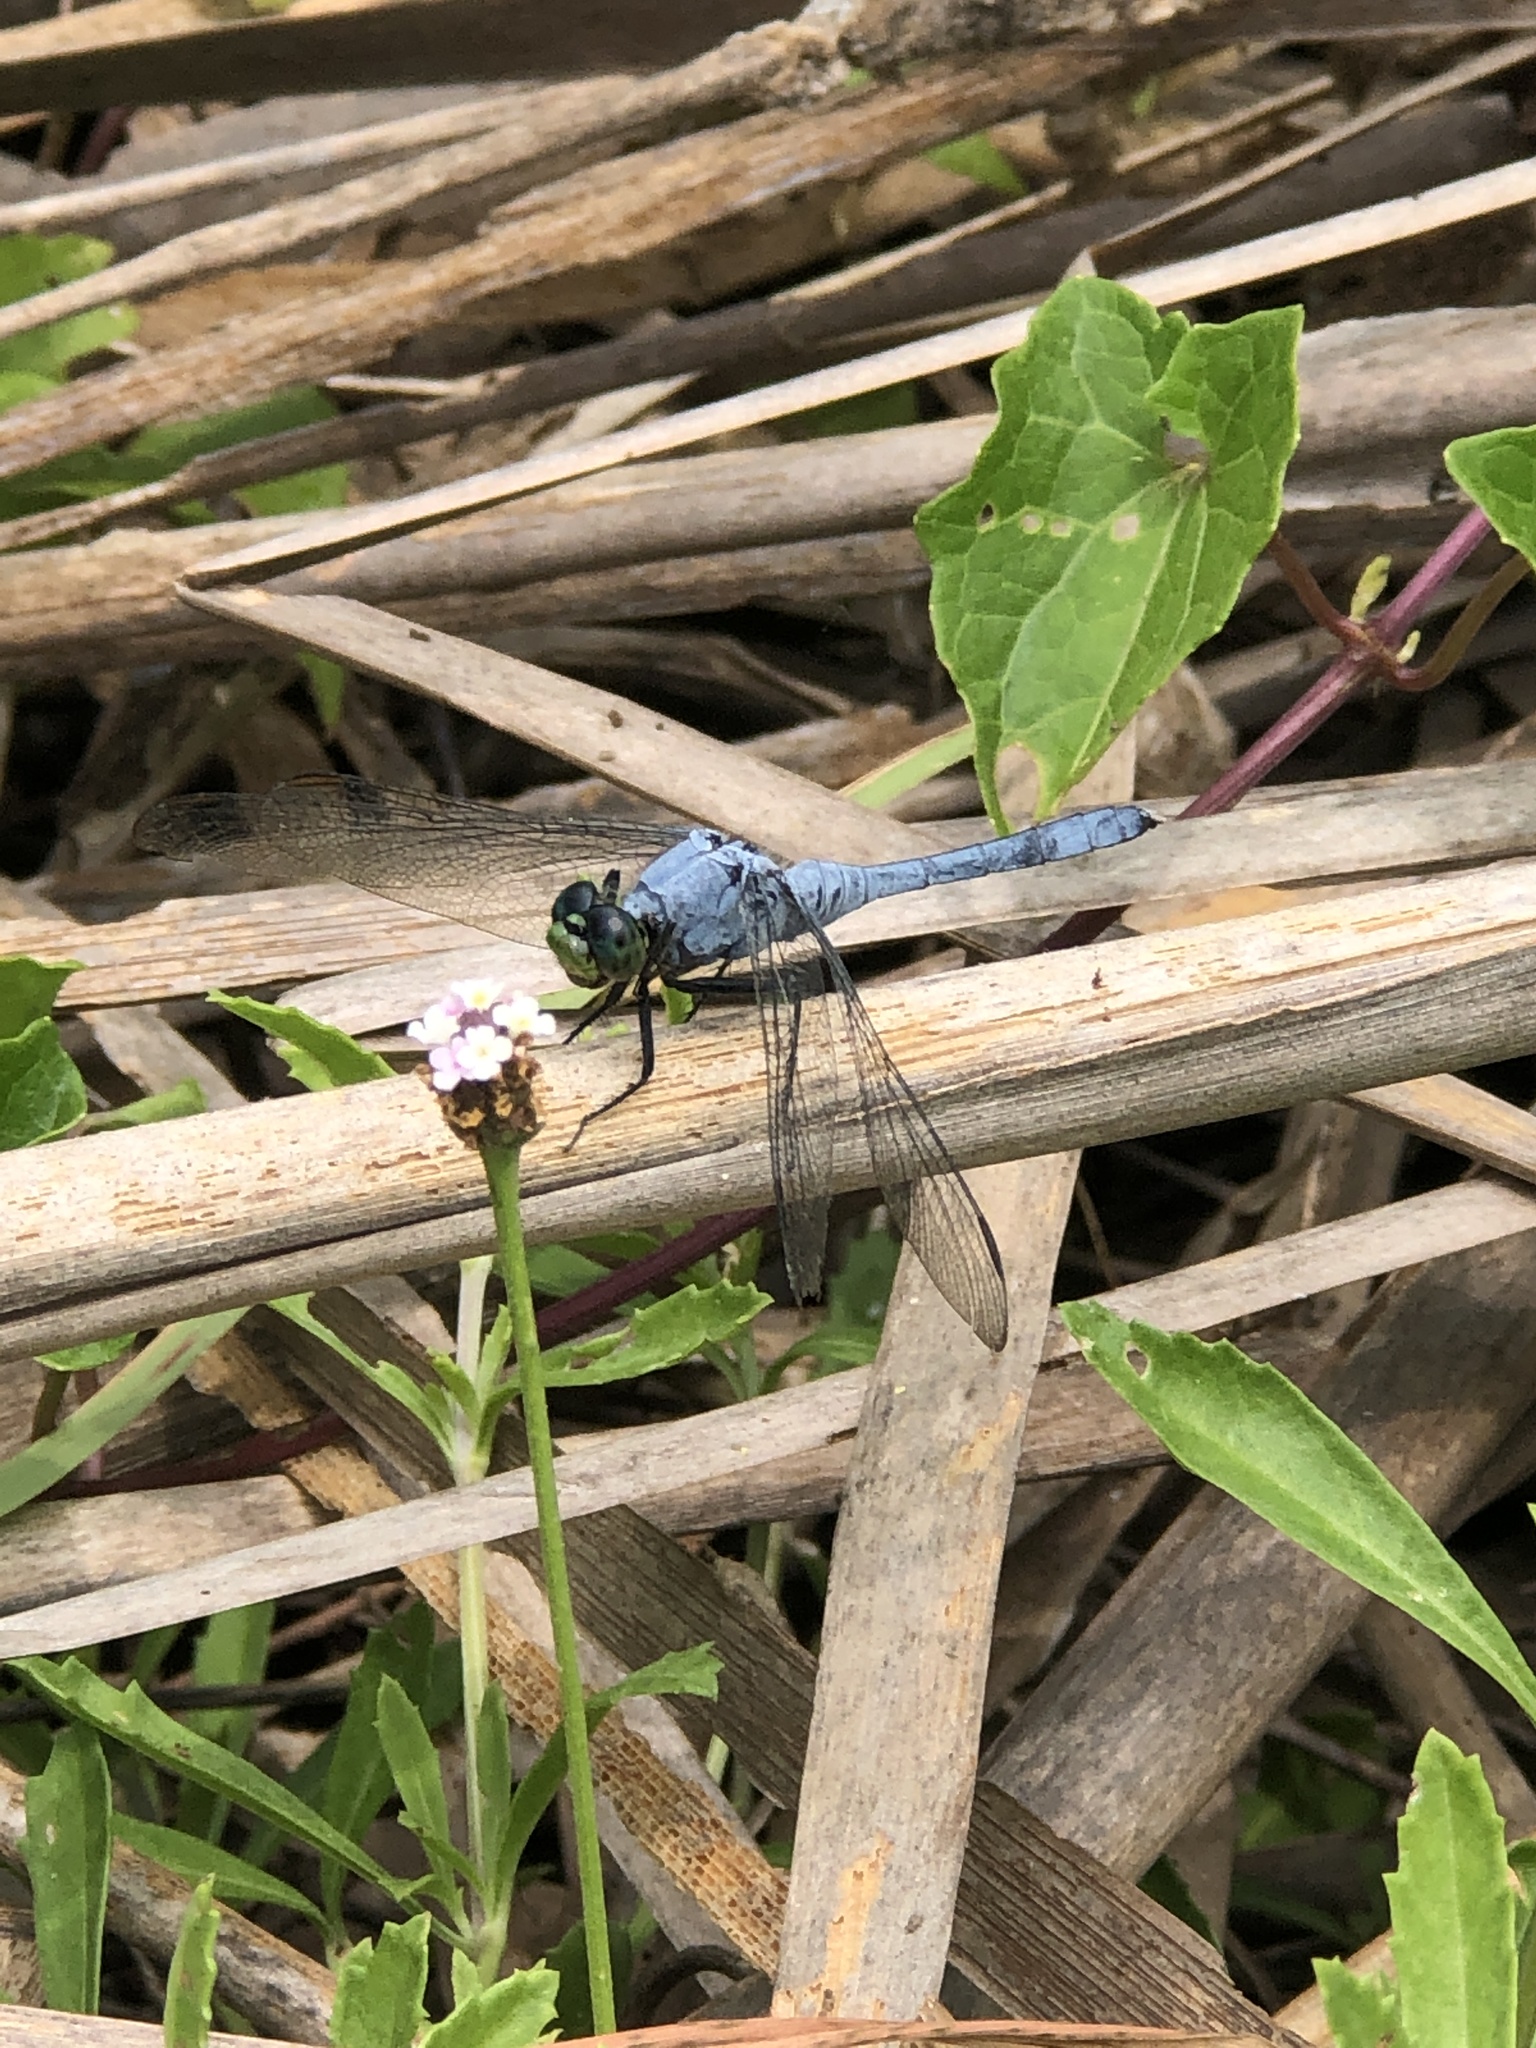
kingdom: Animalia
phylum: Arthropoda
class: Insecta
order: Odonata
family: Libellulidae
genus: Erythemis
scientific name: Erythemis simplicicollis
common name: Eastern pondhawk
